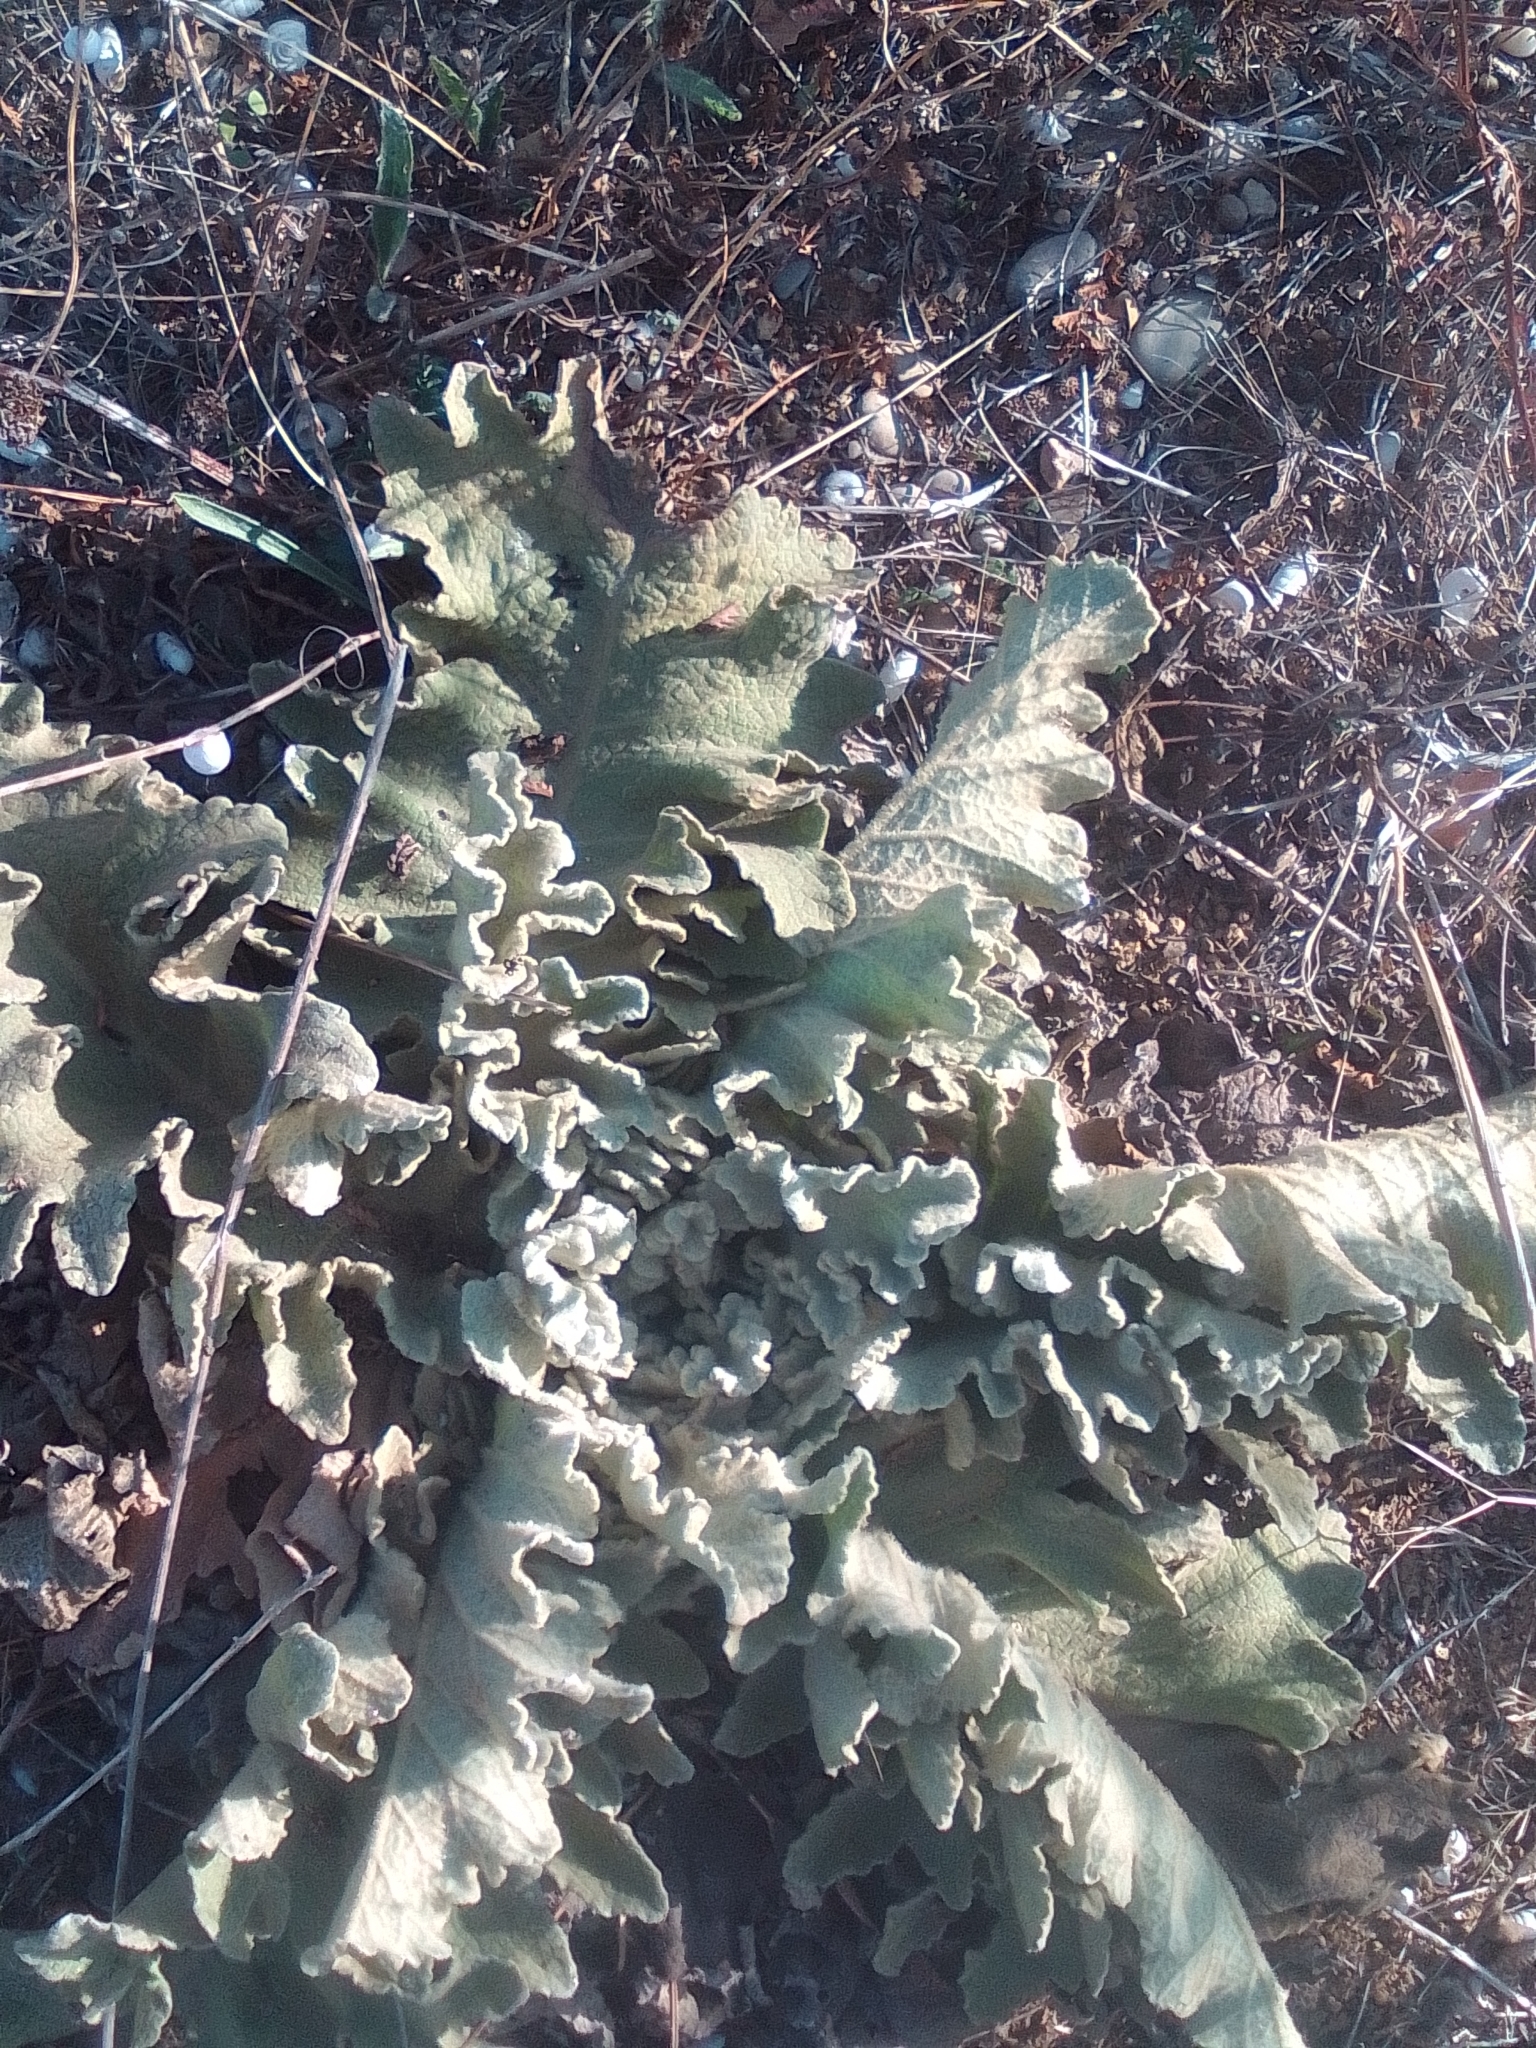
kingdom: Plantae
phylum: Tracheophyta
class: Magnoliopsida
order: Lamiales
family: Scrophulariaceae
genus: Verbascum
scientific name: Verbascum undulatum
